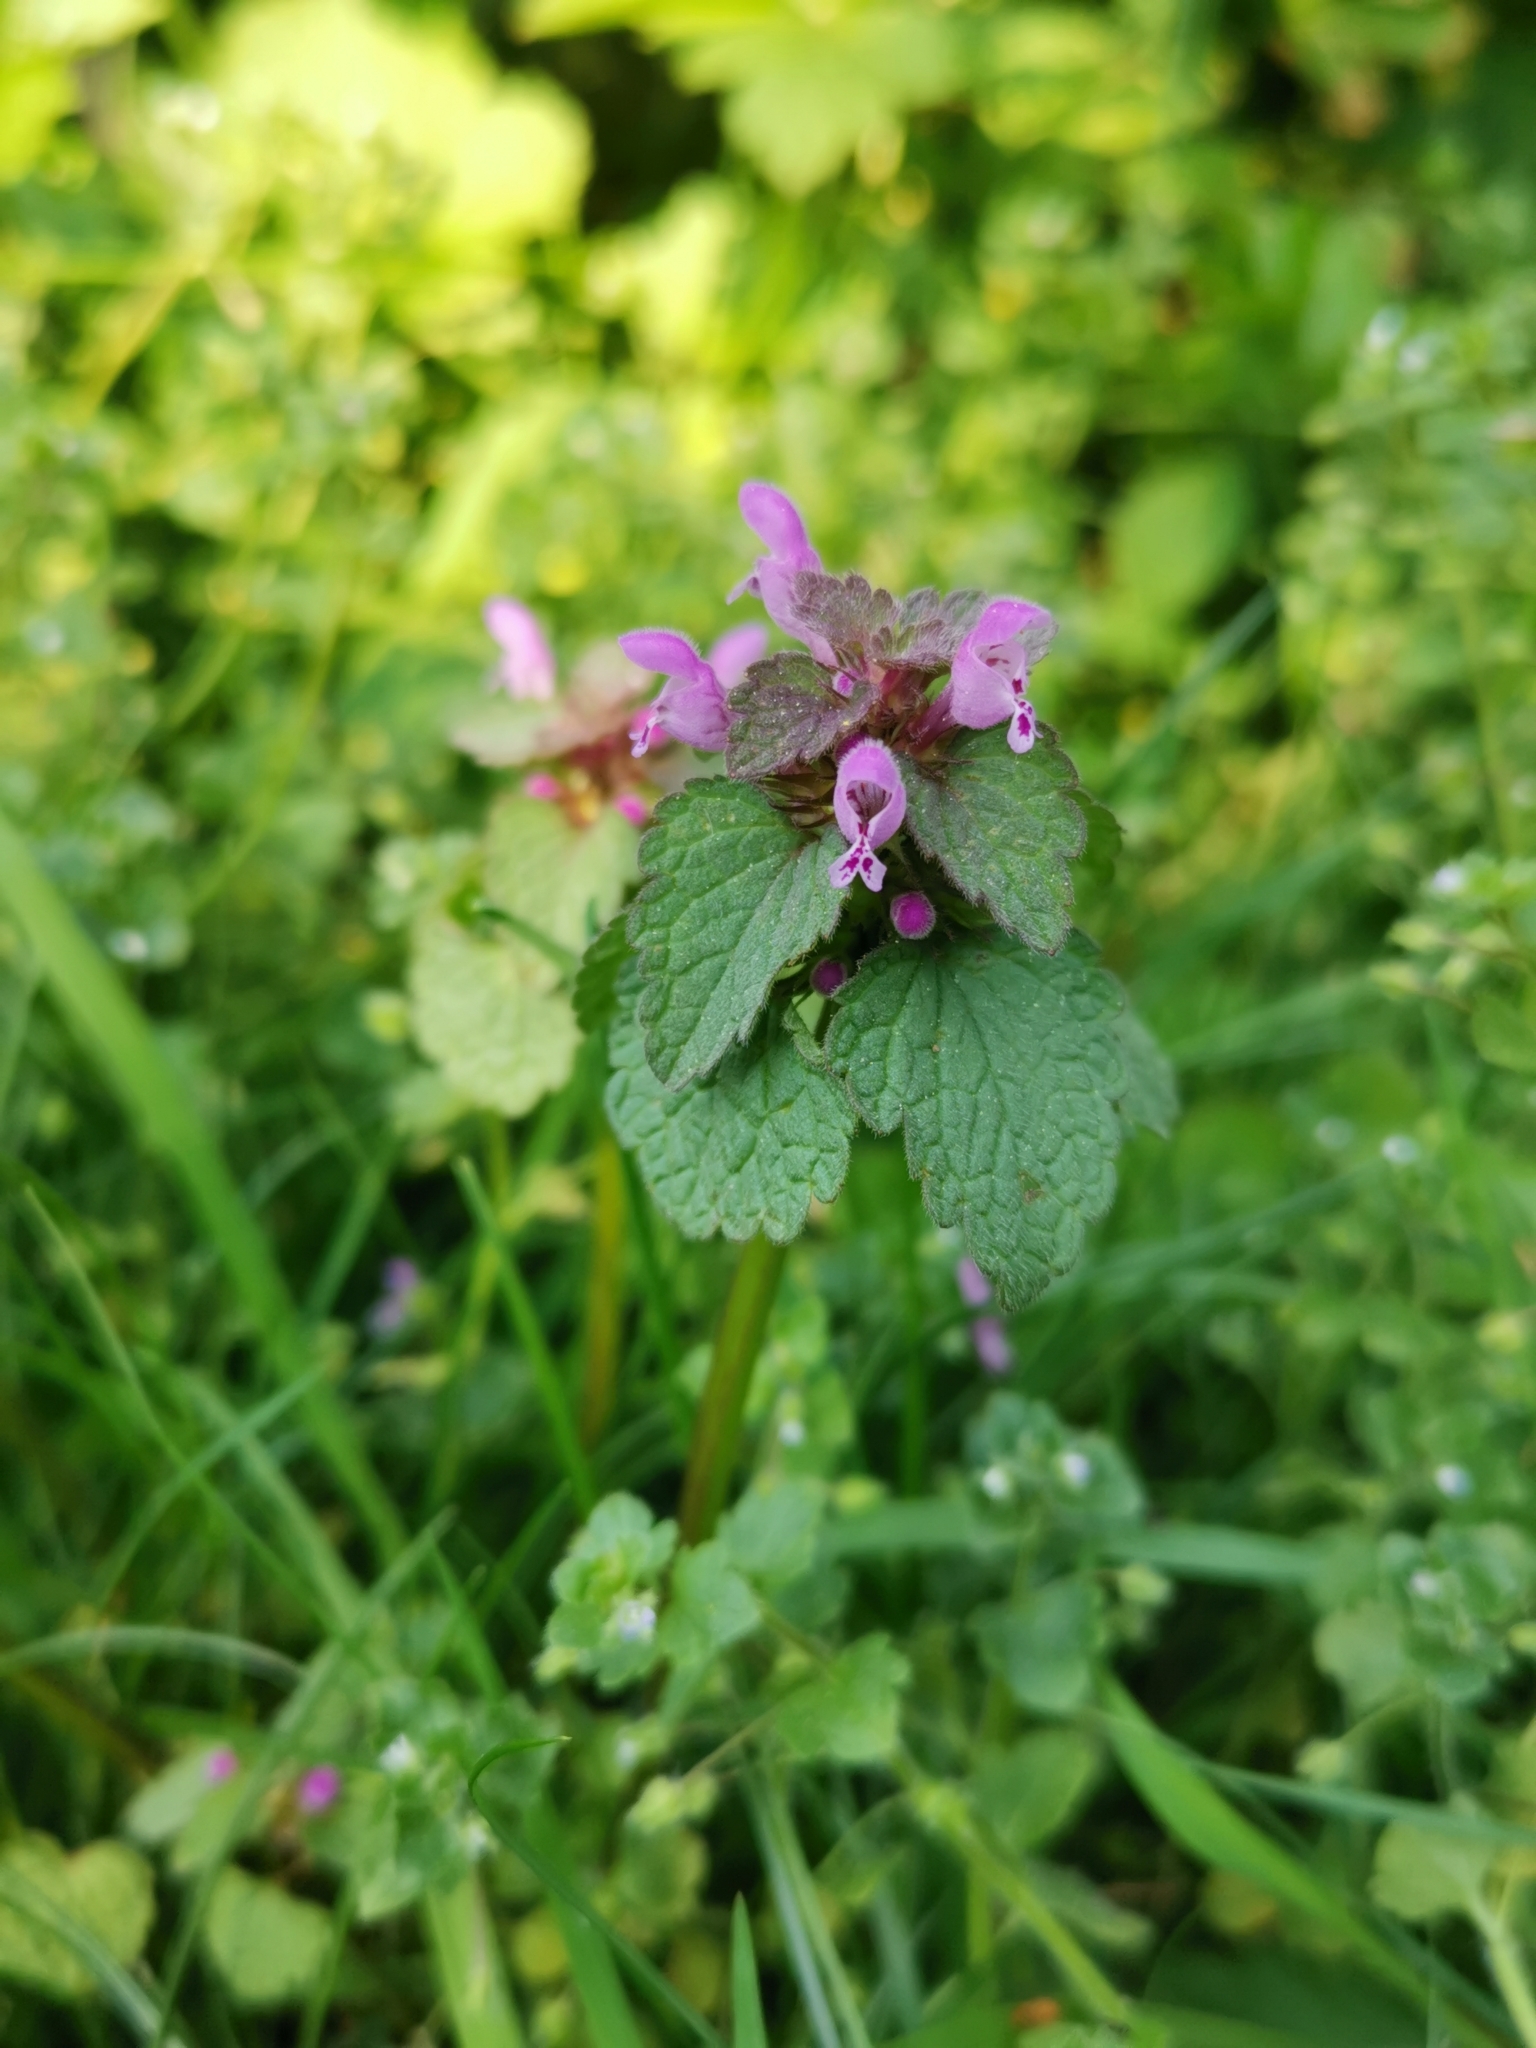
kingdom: Plantae
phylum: Tracheophyta
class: Magnoliopsida
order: Lamiales
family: Lamiaceae
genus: Lamium
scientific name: Lamium purpureum
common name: Red dead-nettle
